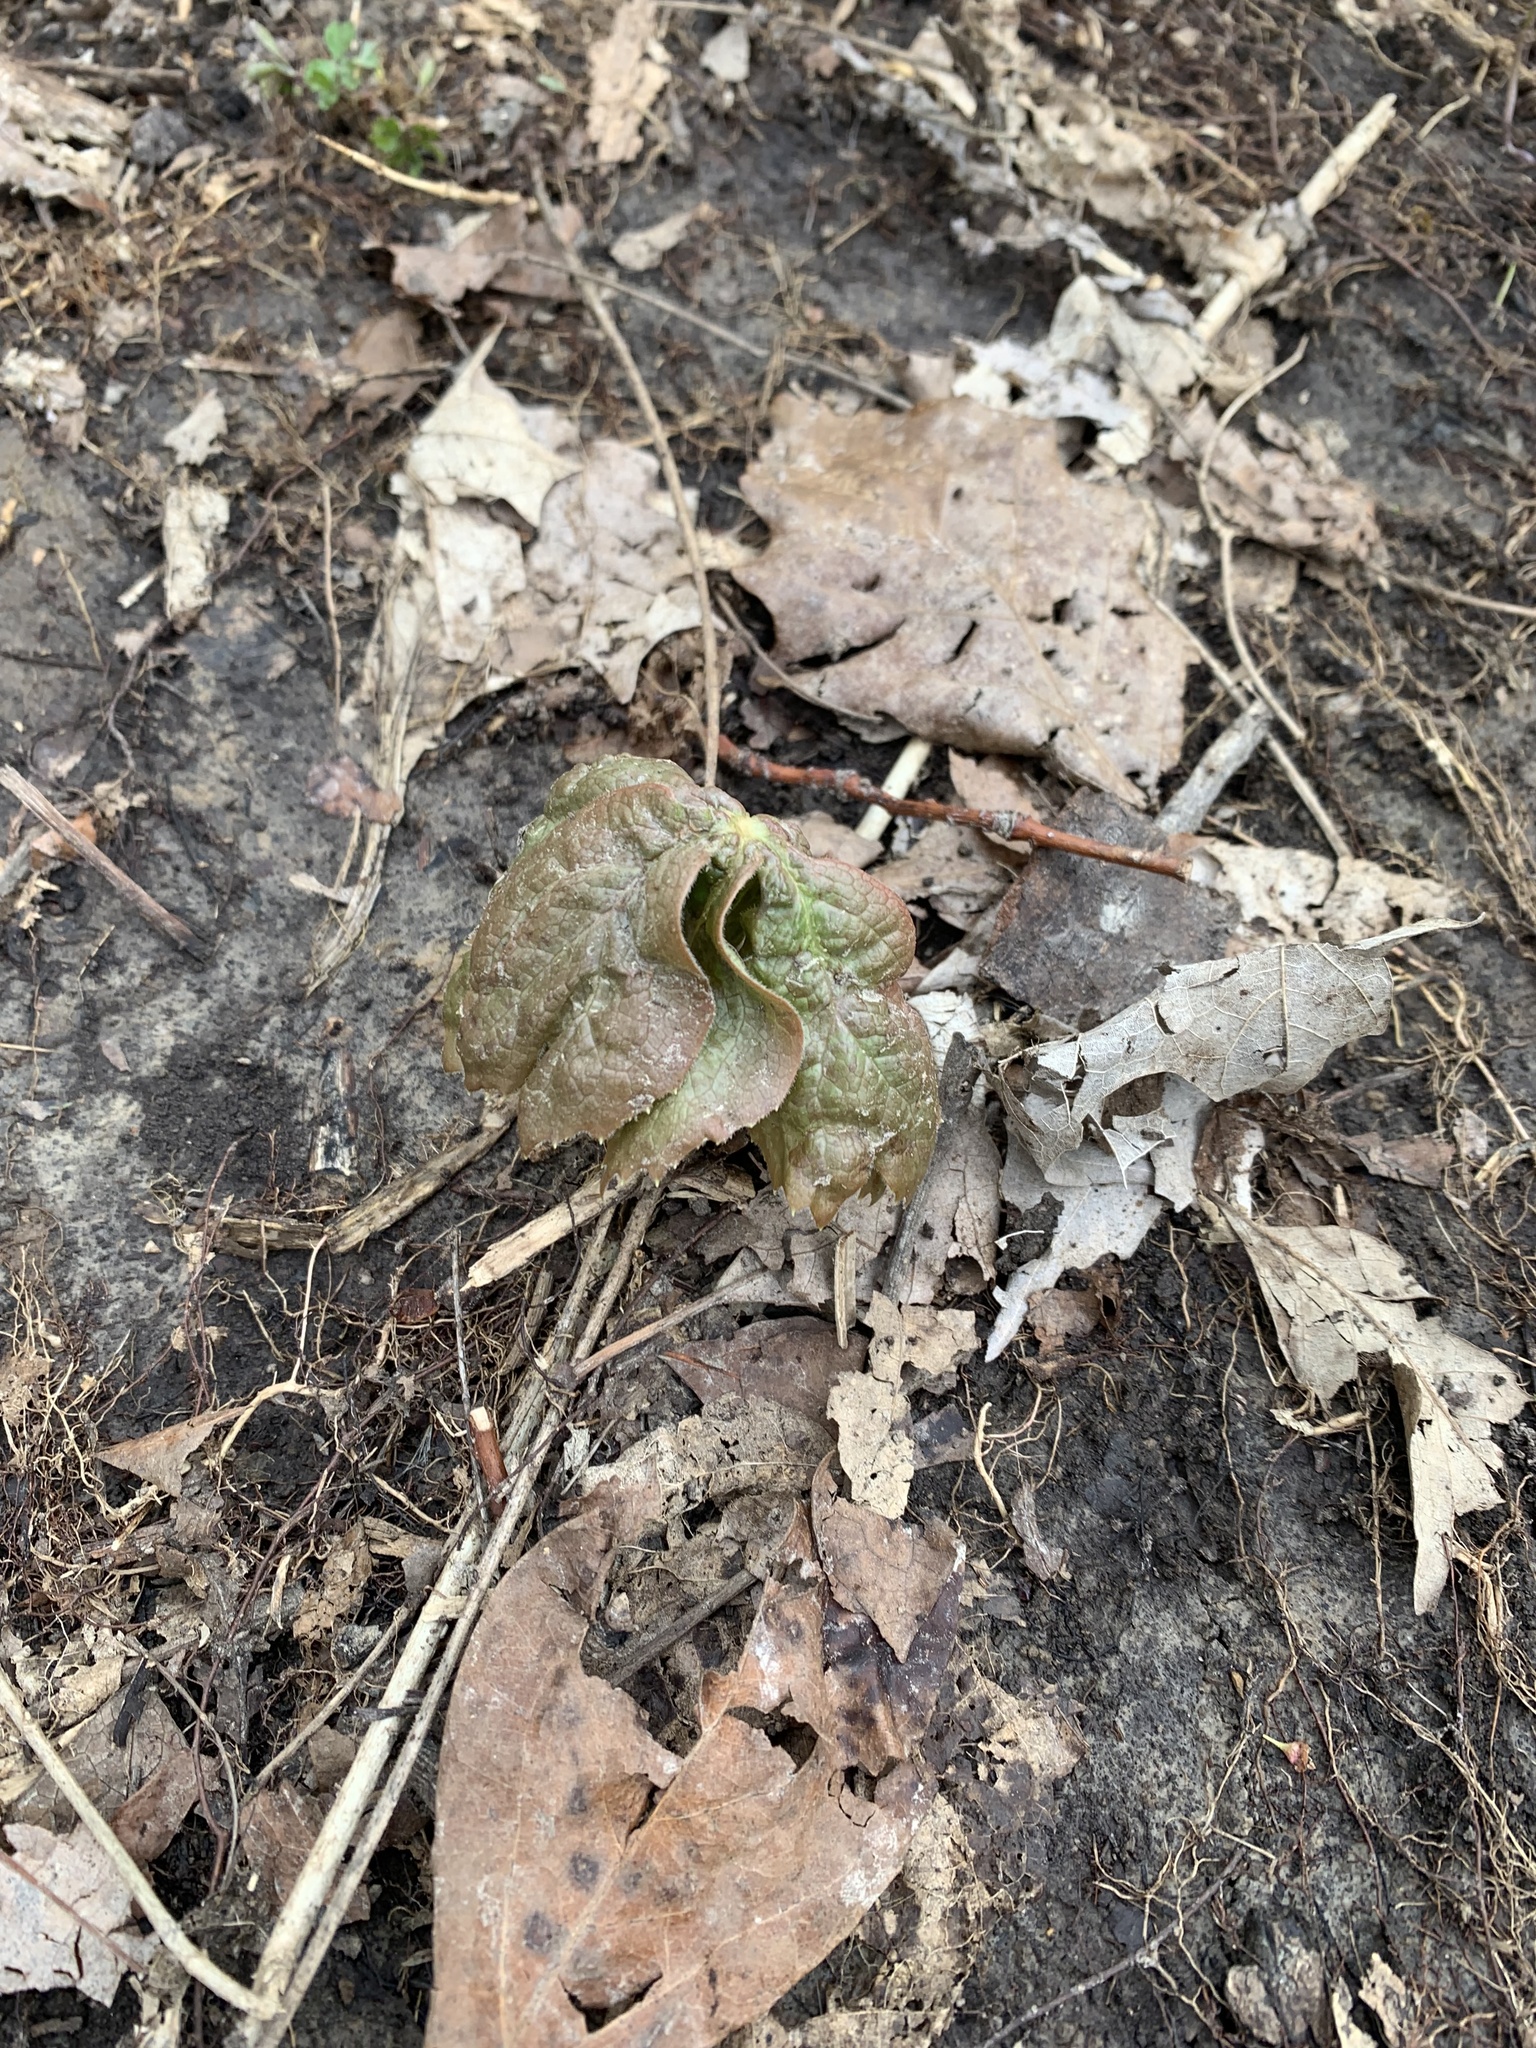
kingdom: Plantae
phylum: Tracheophyta
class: Magnoliopsida
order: Ranunculales
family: Berberidaceae
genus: Podophyllum
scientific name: Podophyllum peltatum
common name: Wild mandrake
